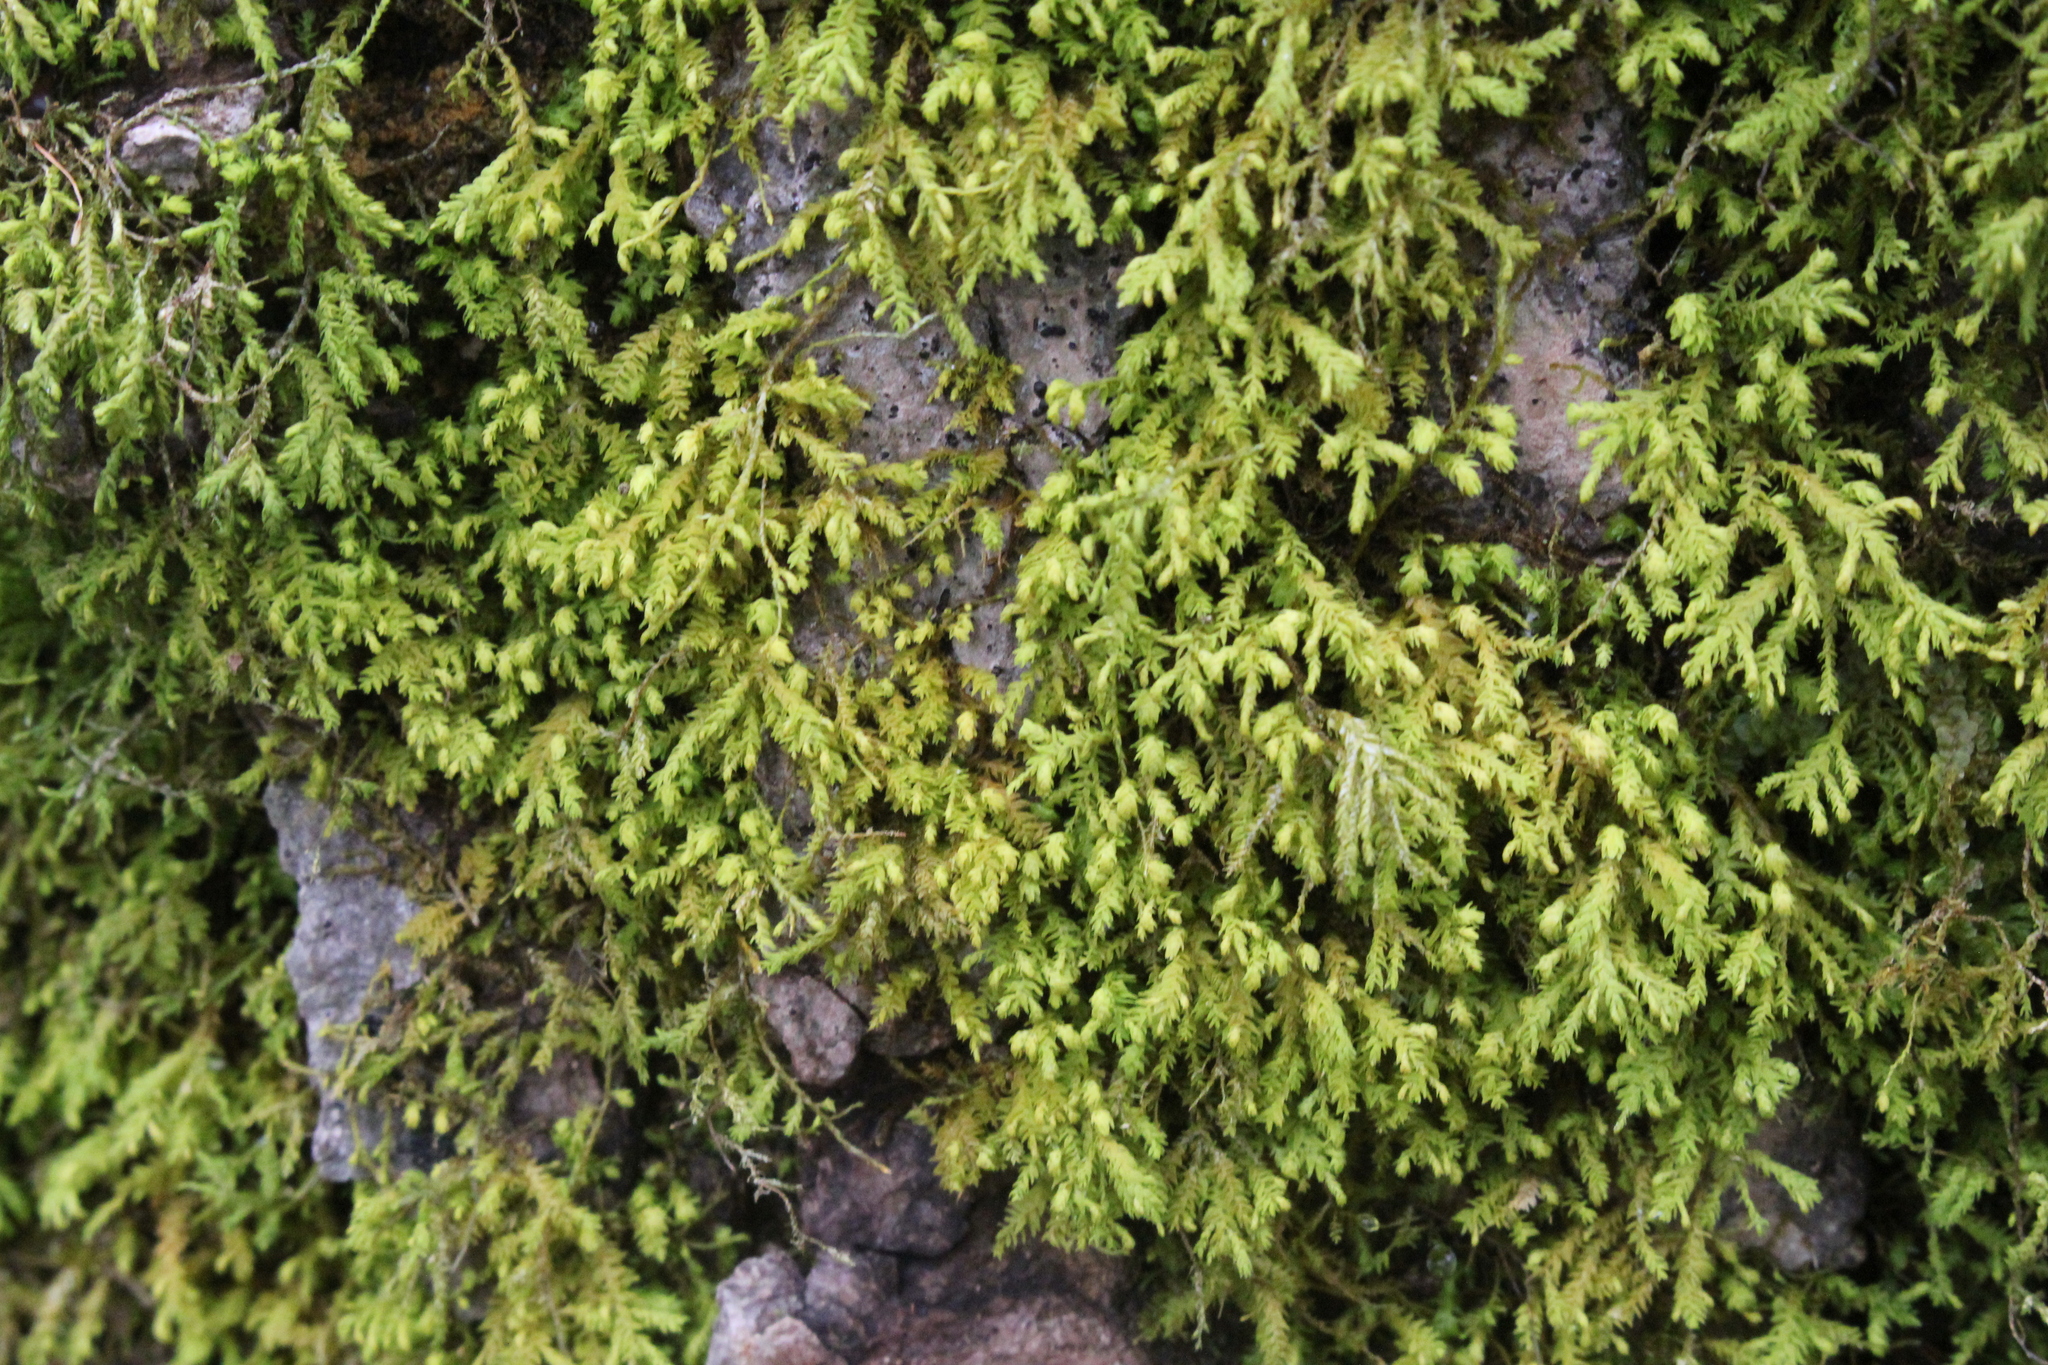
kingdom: Plantae
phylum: Bryophyta
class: Bryopsida
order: Hypnales
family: Neckeraceae
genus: Pseudanomodon
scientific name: Pseudanomodon attenuatus
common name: Tree-skirt moss
